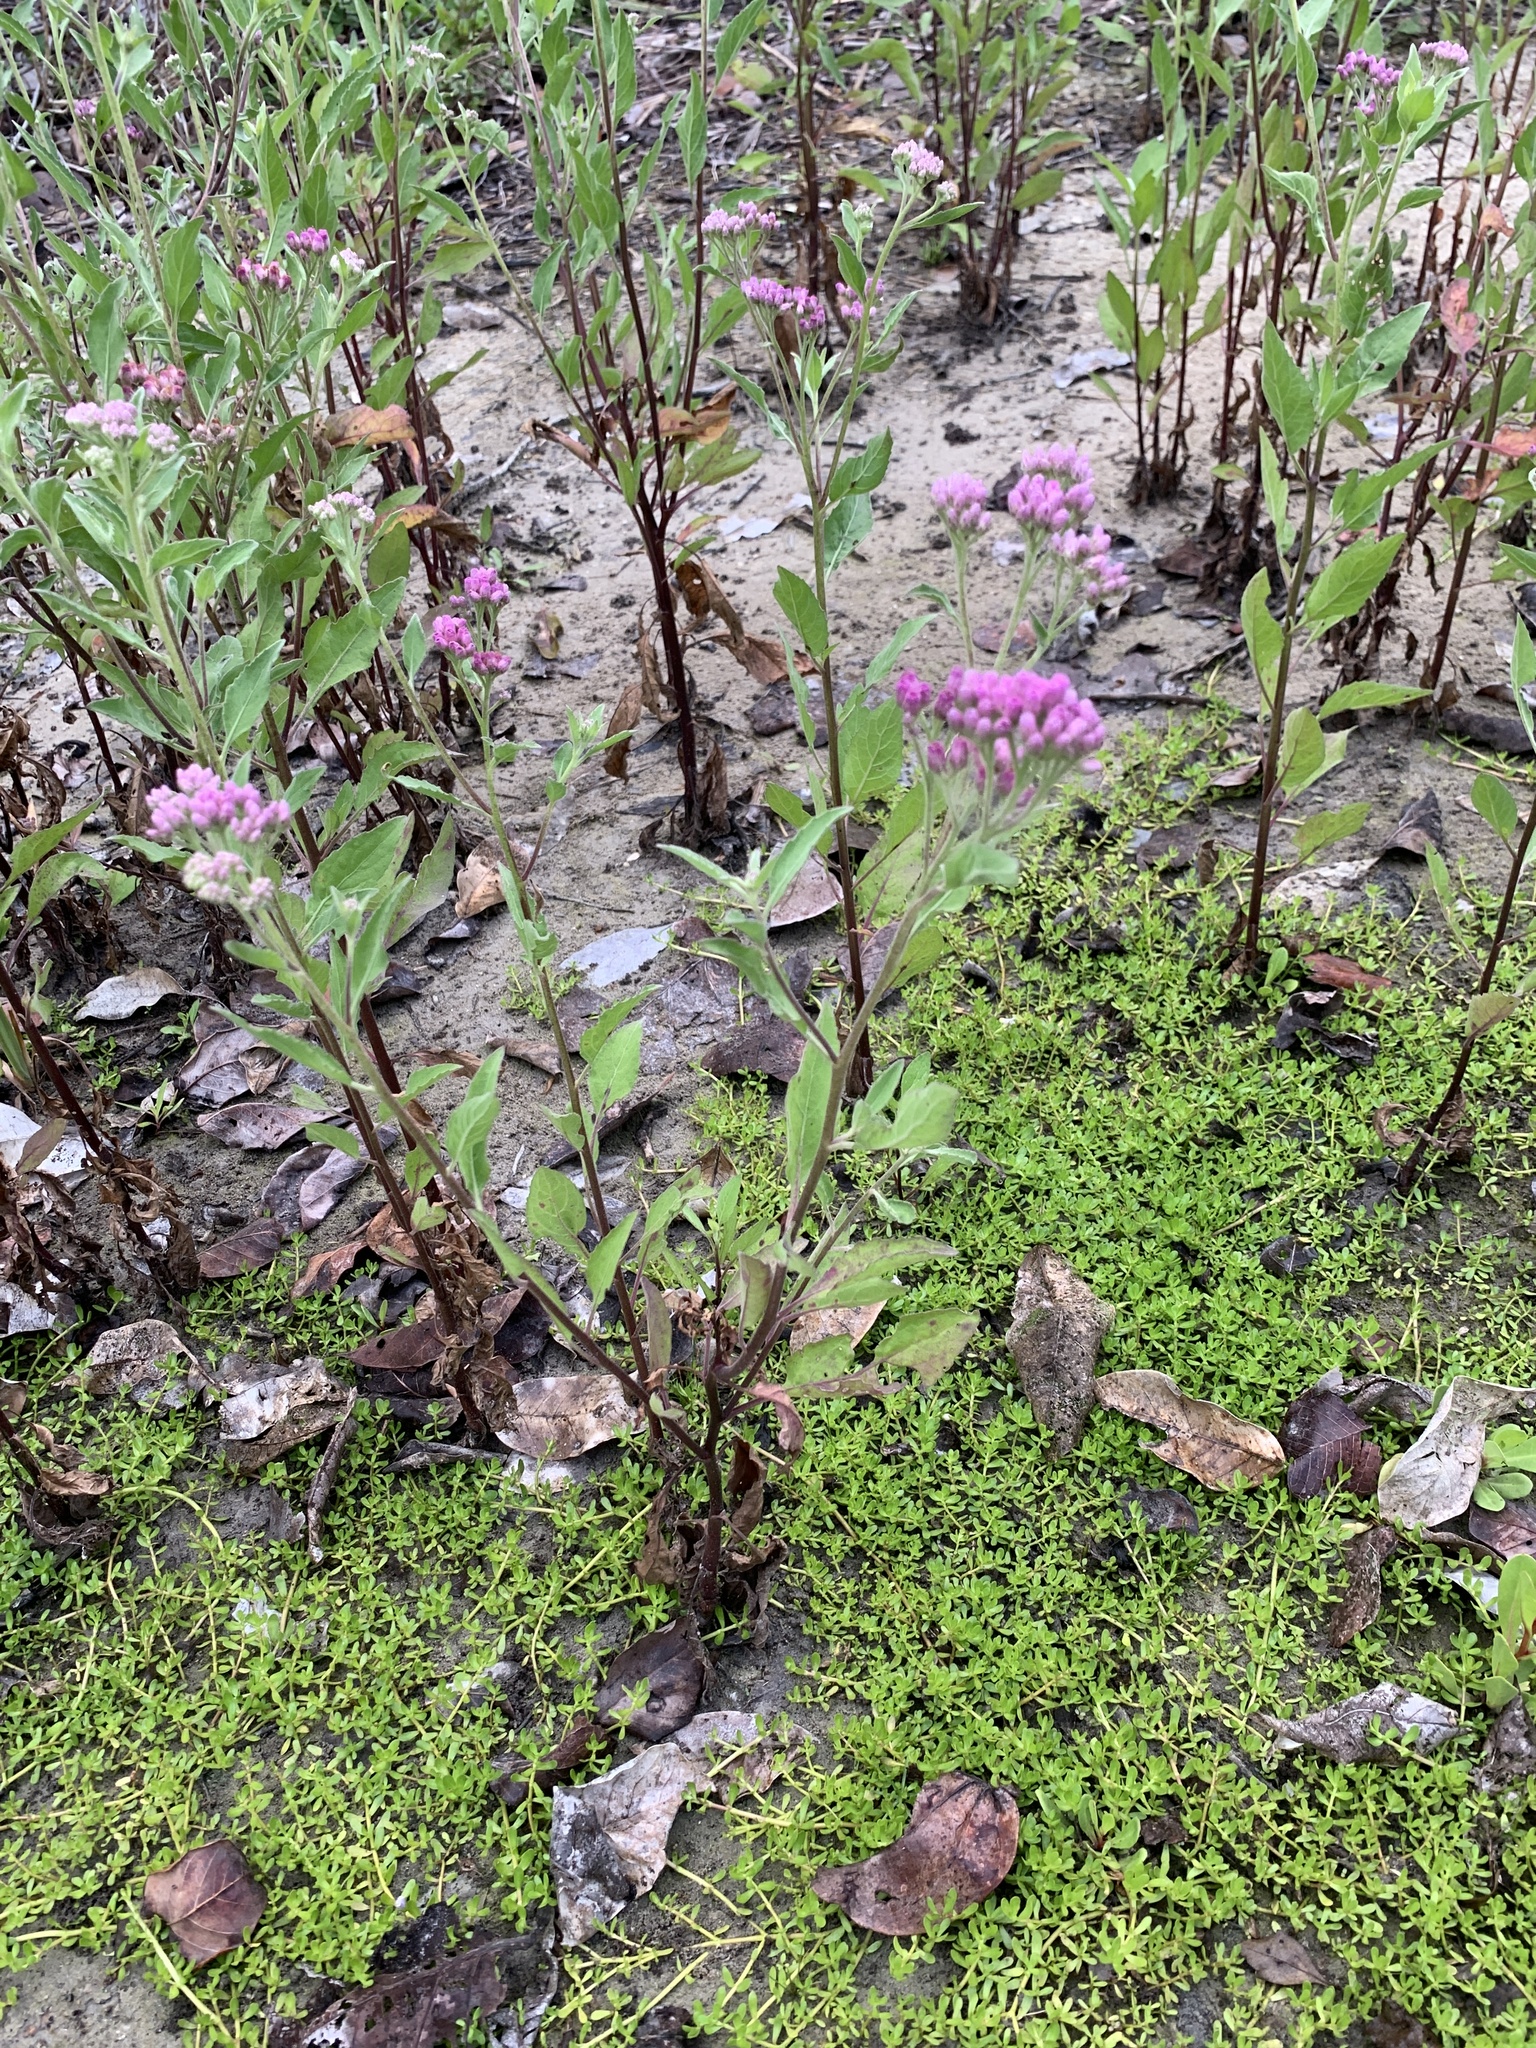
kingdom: Plantae
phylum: Tracheophyta
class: Magnoliopsida
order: Asterales
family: Asteraceae
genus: Pluchea
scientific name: Pluchea odorata
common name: Saltmarsh fleabane
